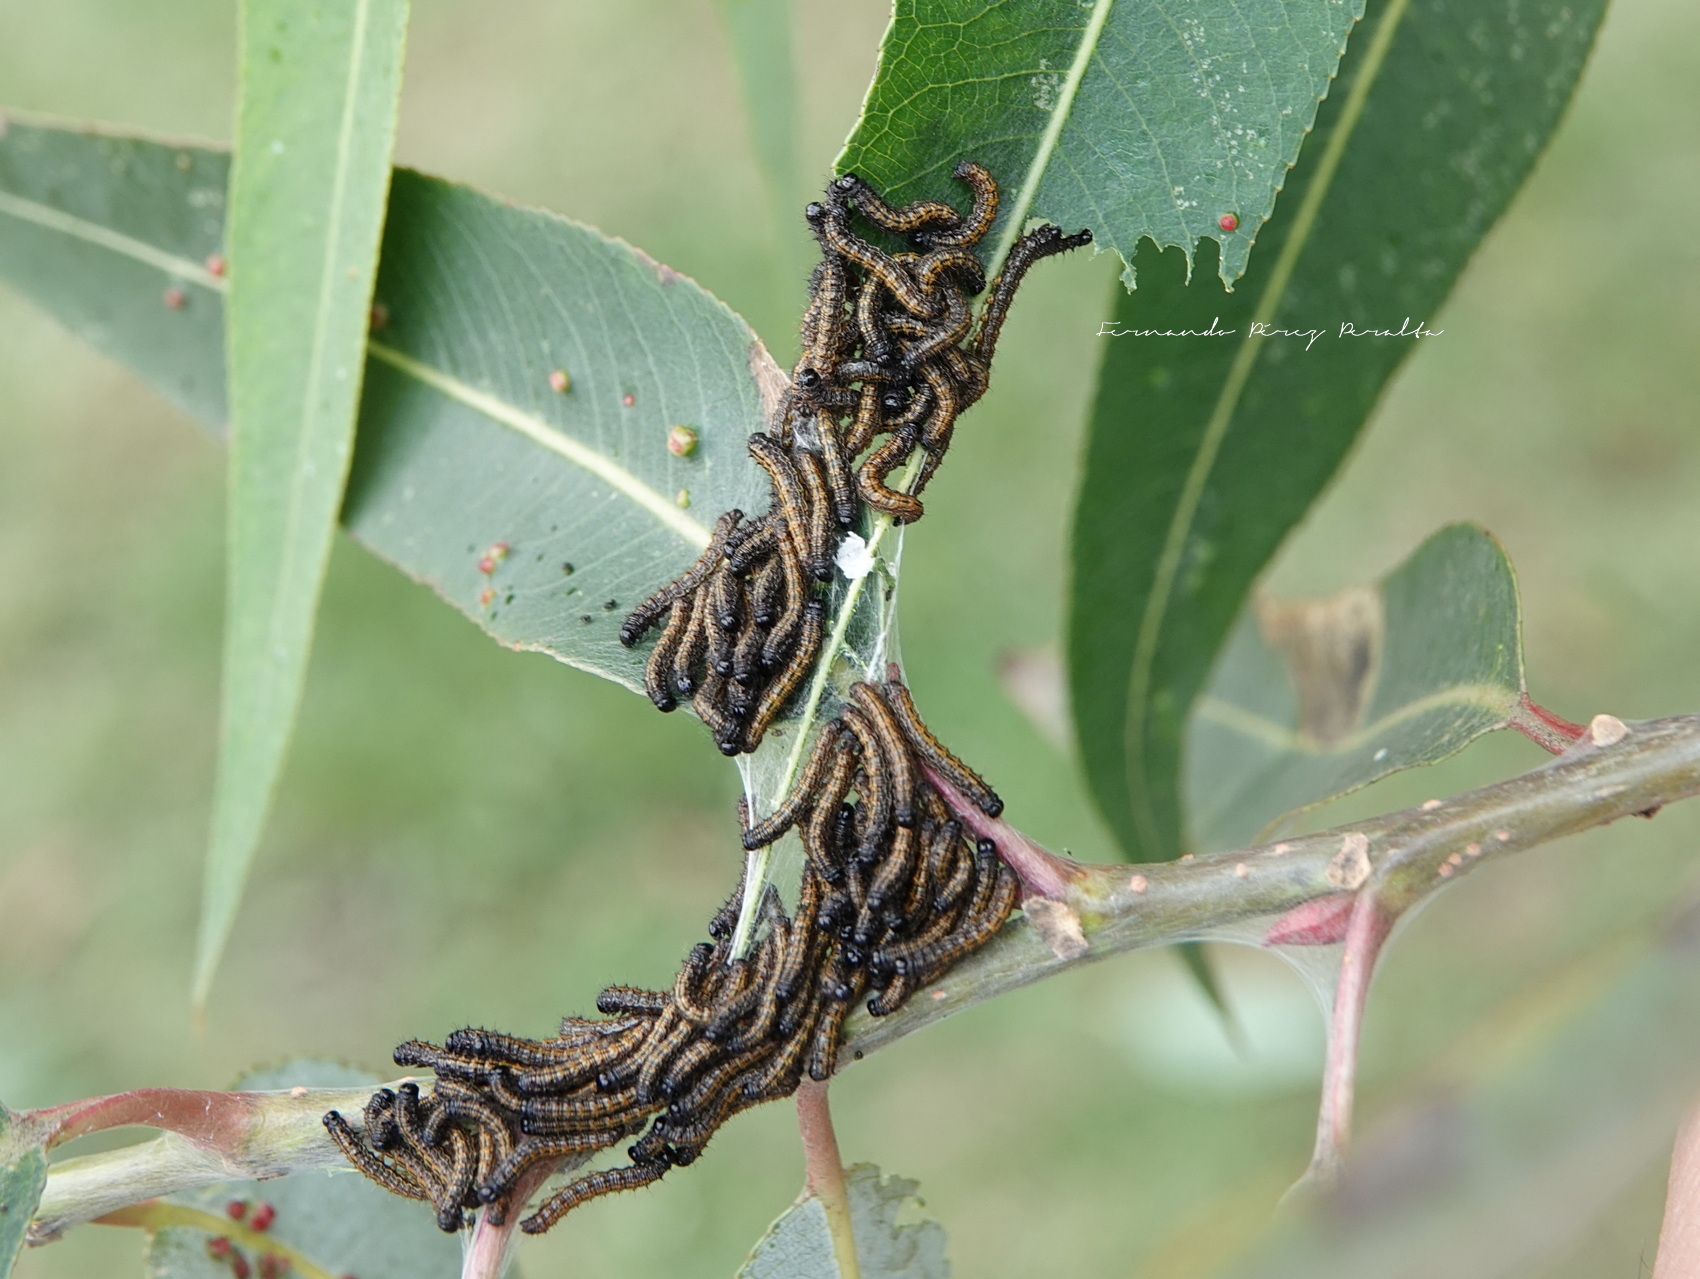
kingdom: Animalia
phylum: Arthropoda
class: Insecta
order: Lepidoptera
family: Nymphalidae
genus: Nymphalis
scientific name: Nymphalis antiopa
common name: Camberwell beauty
